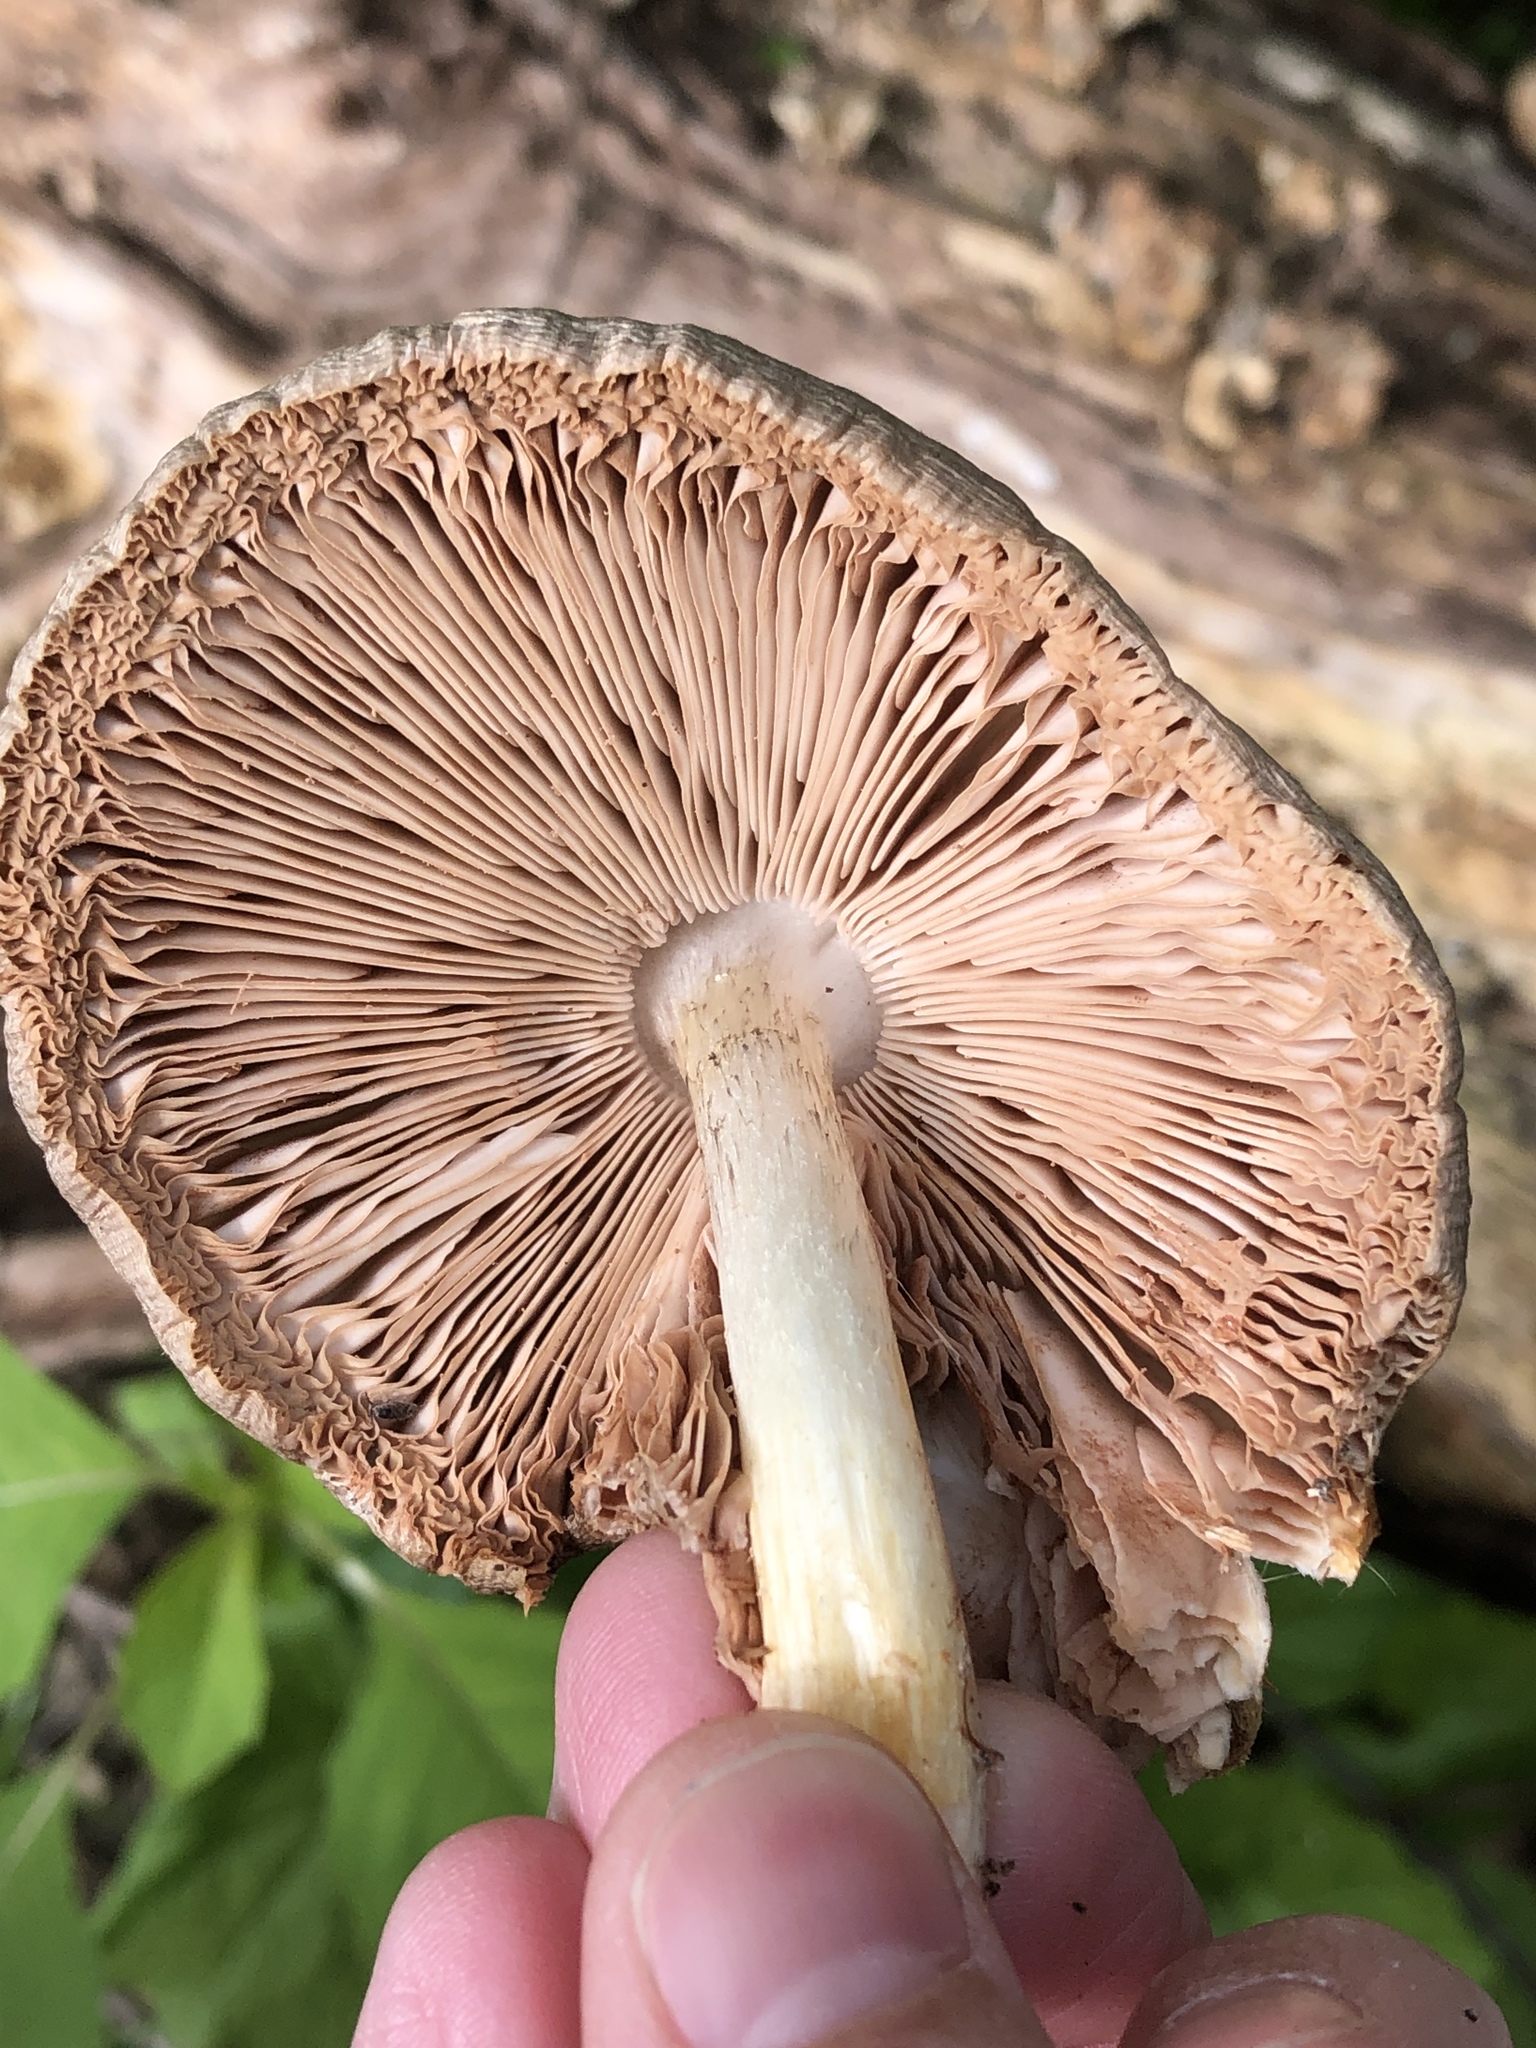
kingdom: Fungi
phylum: Basidiomycota
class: Agaricomycetes
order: Agaricales
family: Pluteaceae
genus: Pluteus
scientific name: Pluteus cervinus
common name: Deer shield
